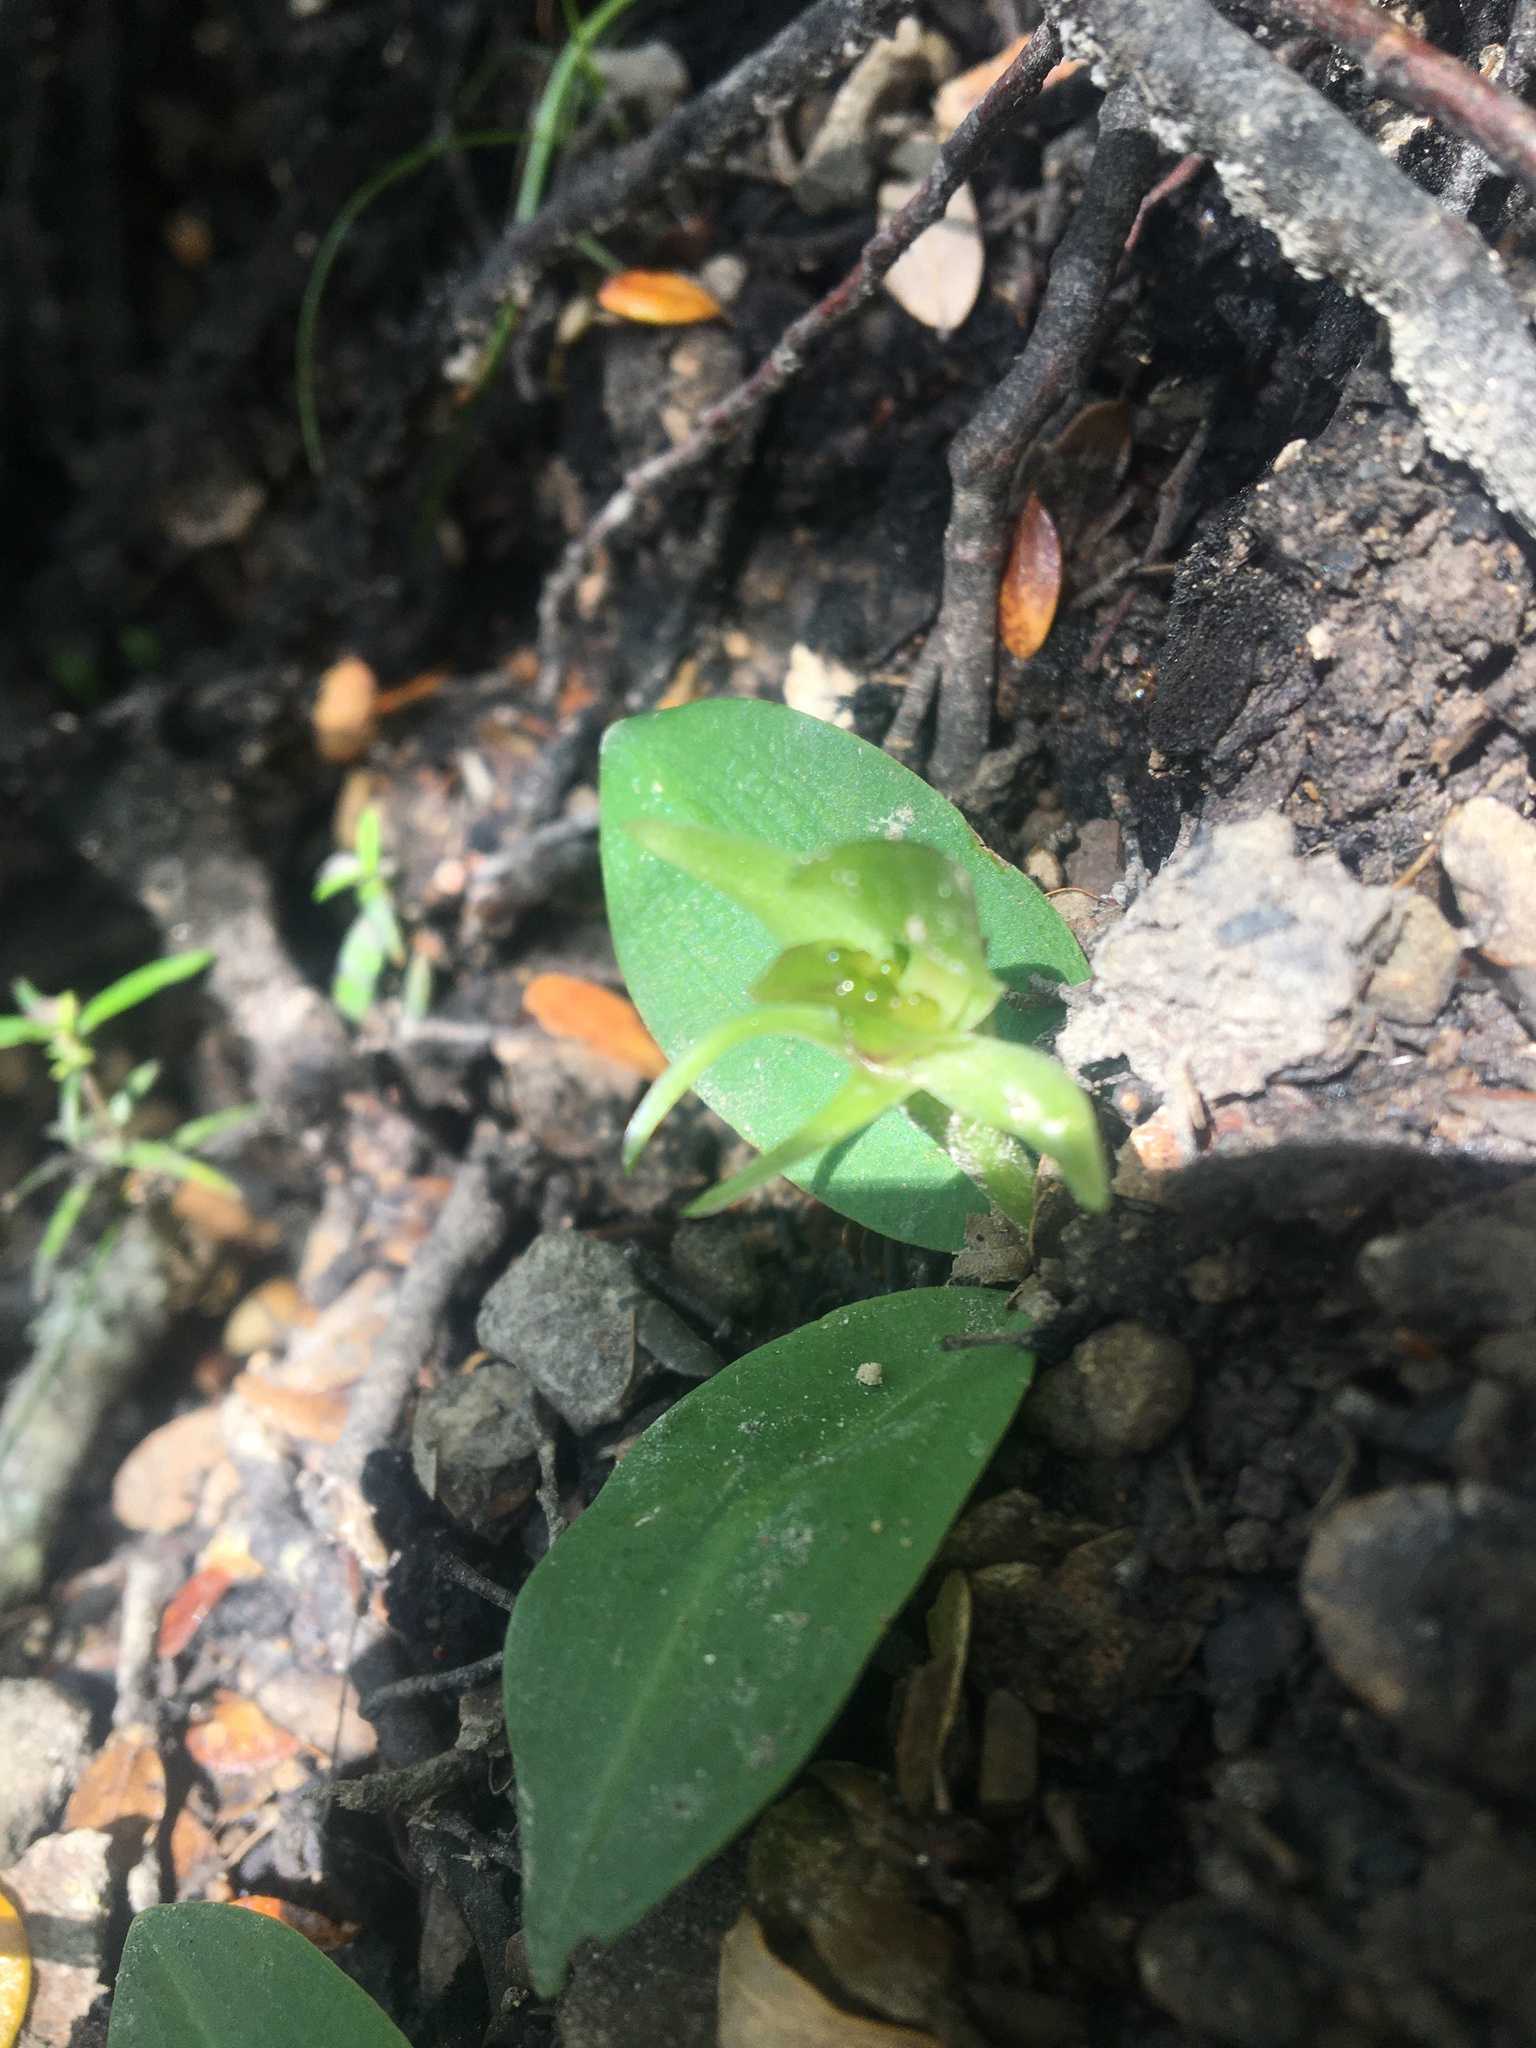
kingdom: Plantae
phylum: Tracheophyta
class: Liliopsida
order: Asparagales
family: Orchidaceae
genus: Chiloglottis
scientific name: Chiloglottis cornuta
